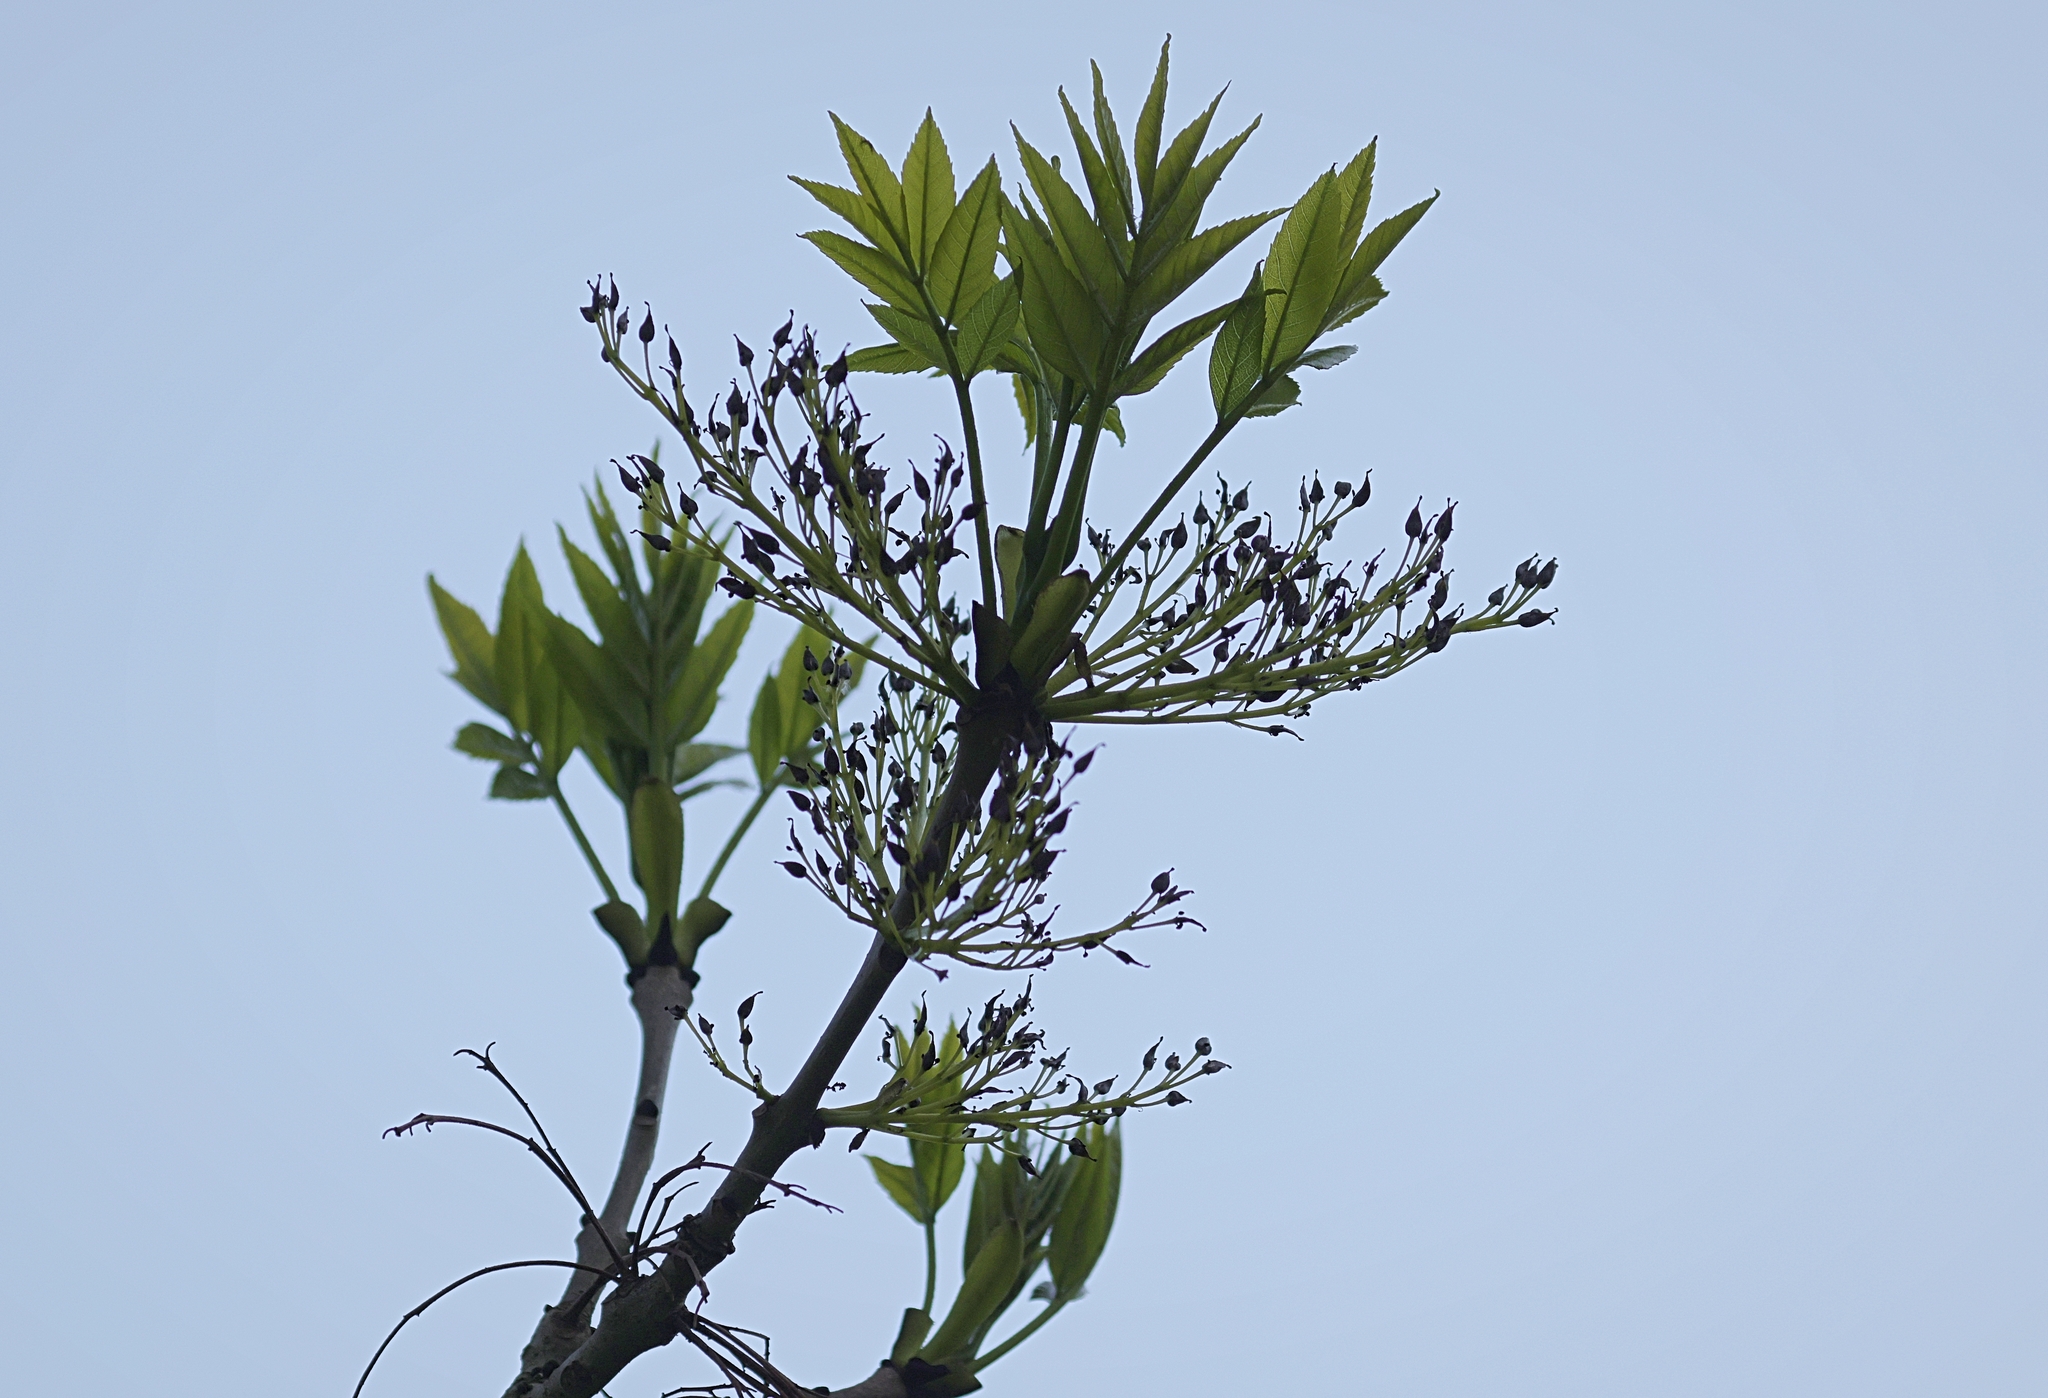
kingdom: Plantae
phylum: Tracheophyta
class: Magnoliopsida
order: Lamiales
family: Oleaceae
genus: Fraxinus
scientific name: Fraxinus excelsior
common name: European ash
